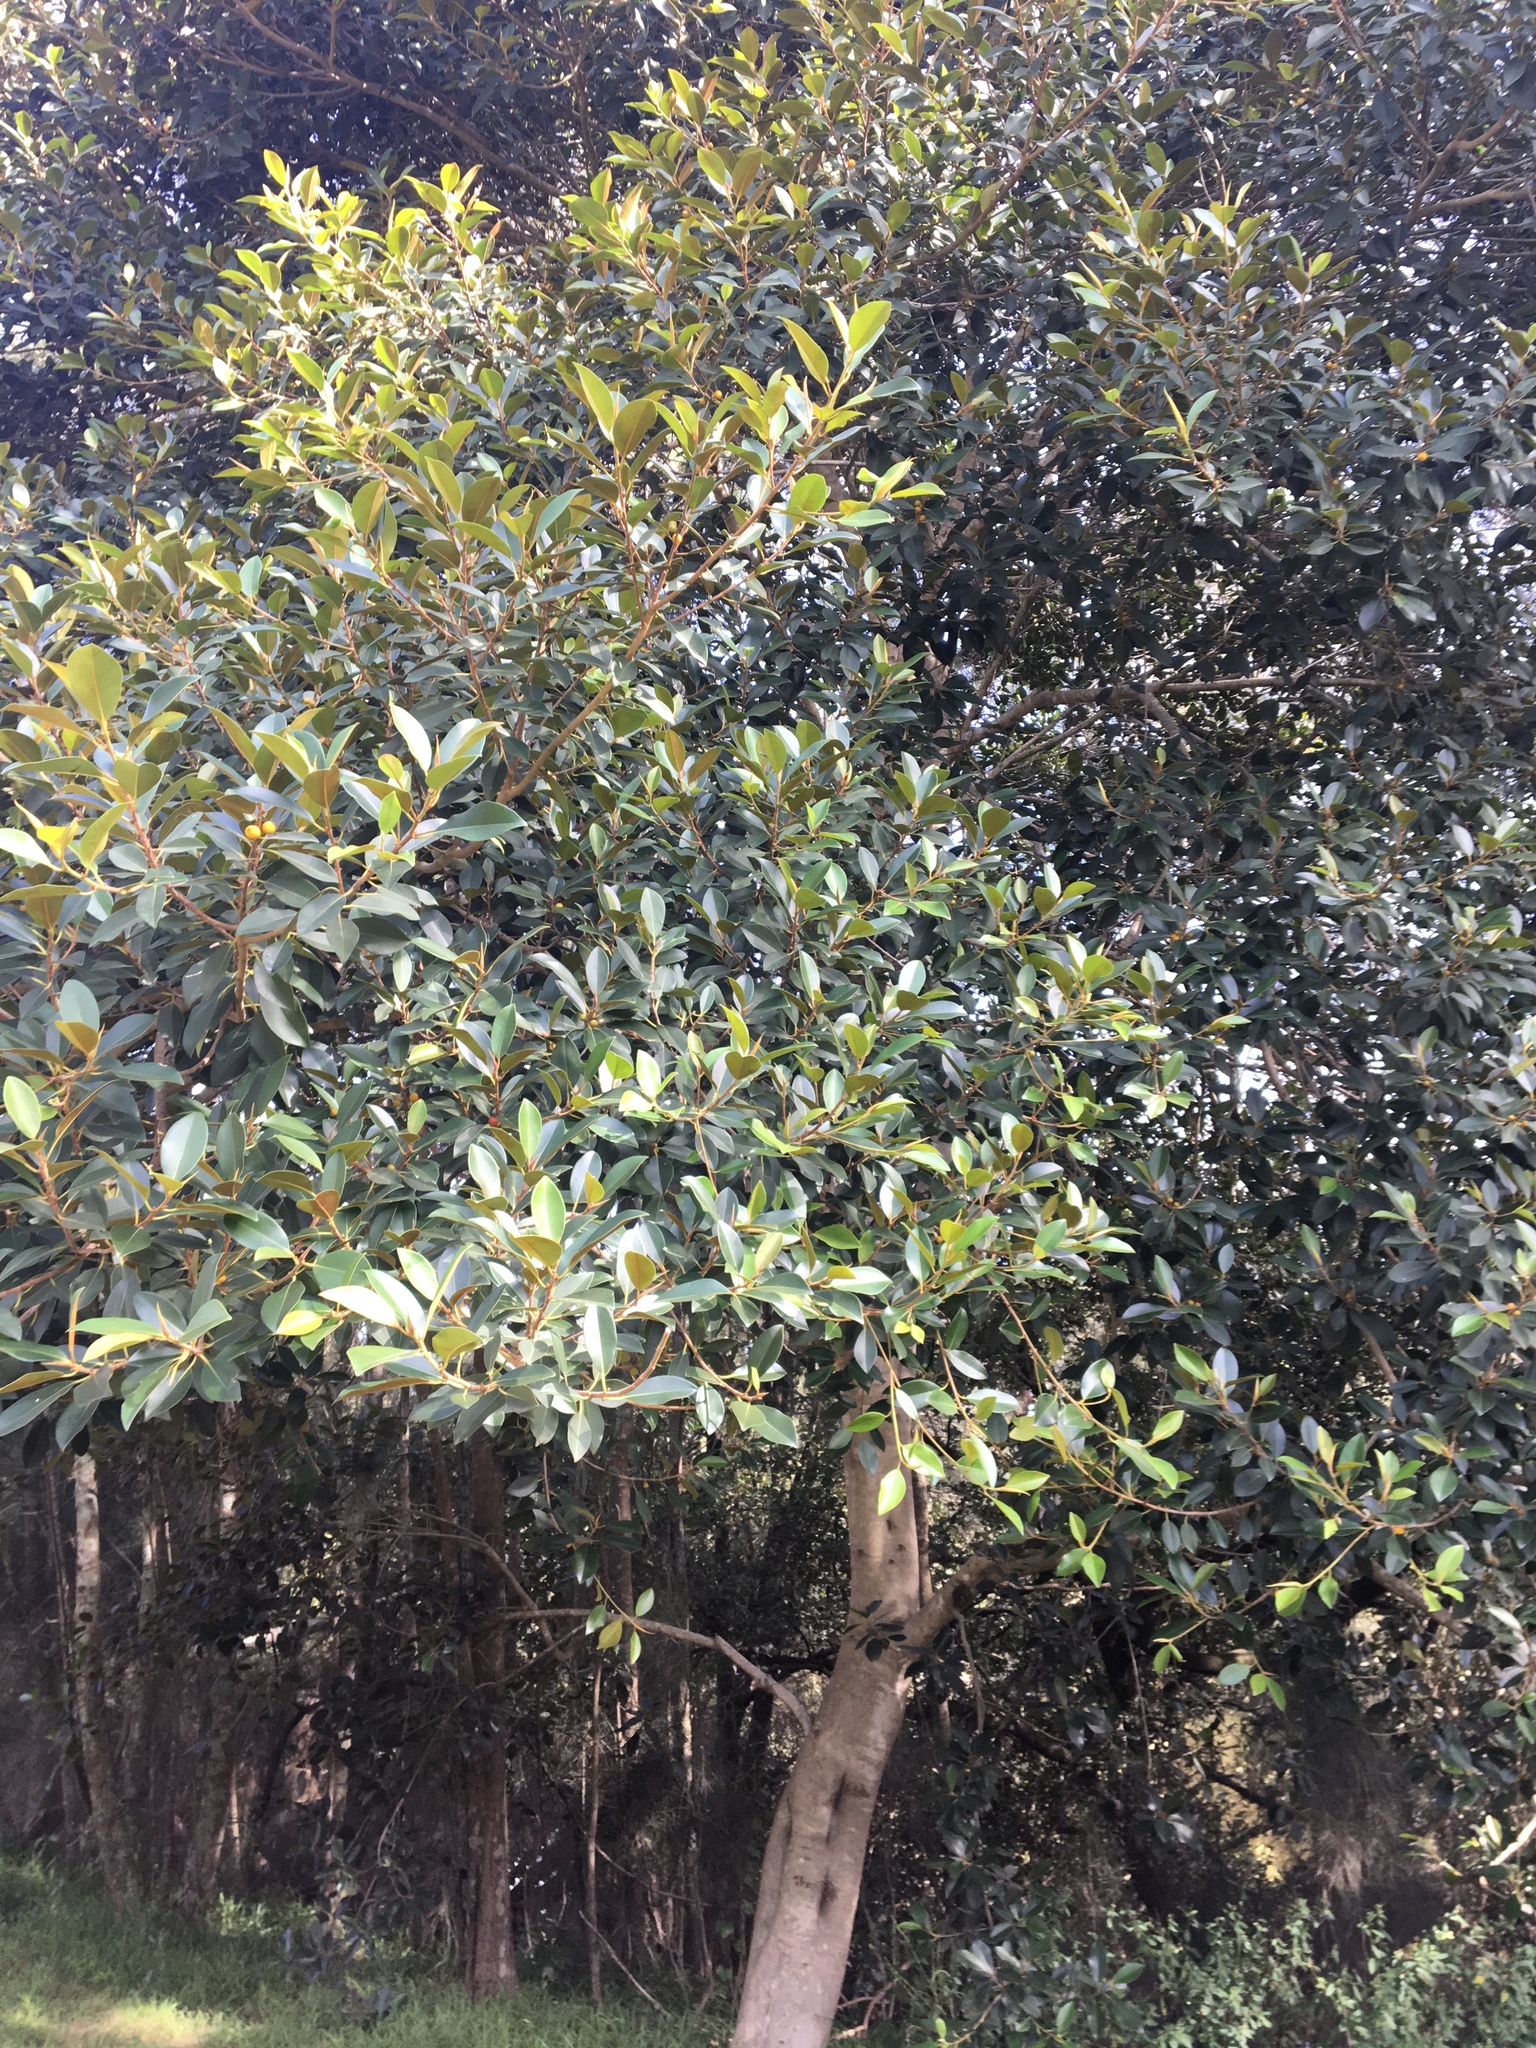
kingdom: Plantae
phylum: Tracheophyta
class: Magnoliopsida
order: Rosales
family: Moraceae
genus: Ficus
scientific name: Ficus rubiginosa
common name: Port jackson fig
